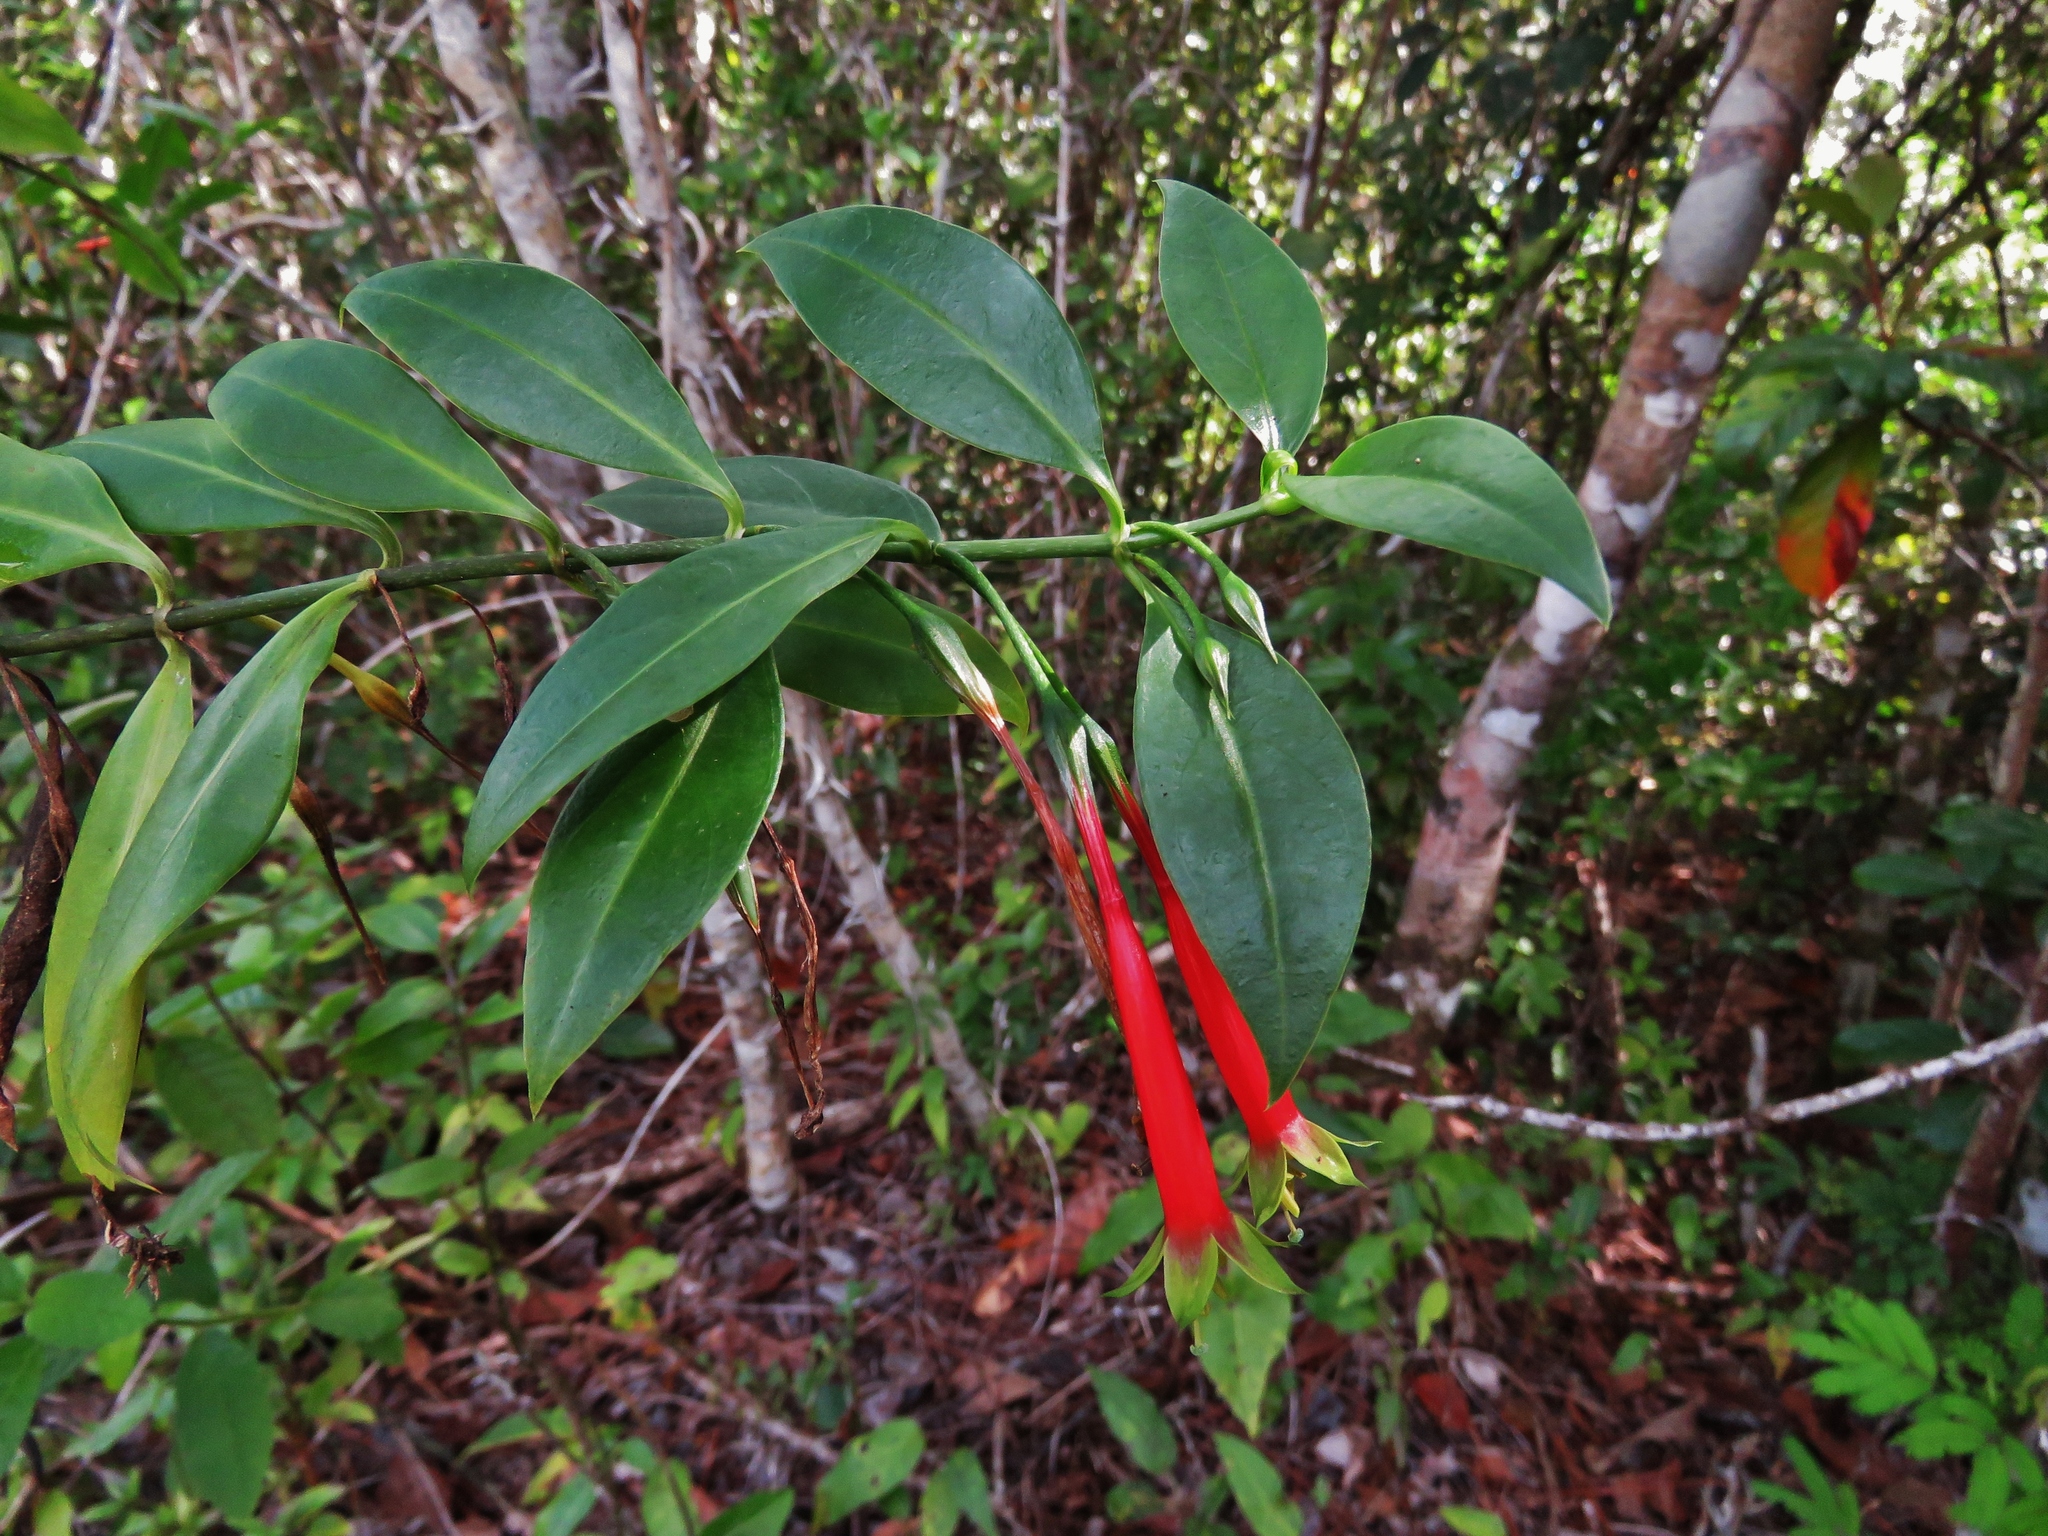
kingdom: Plantae
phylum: Tracheophyta
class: Magnoliopsida
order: Gentianales
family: Gentianaceae
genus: Lisianthus
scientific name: Lisianthus axillaris
